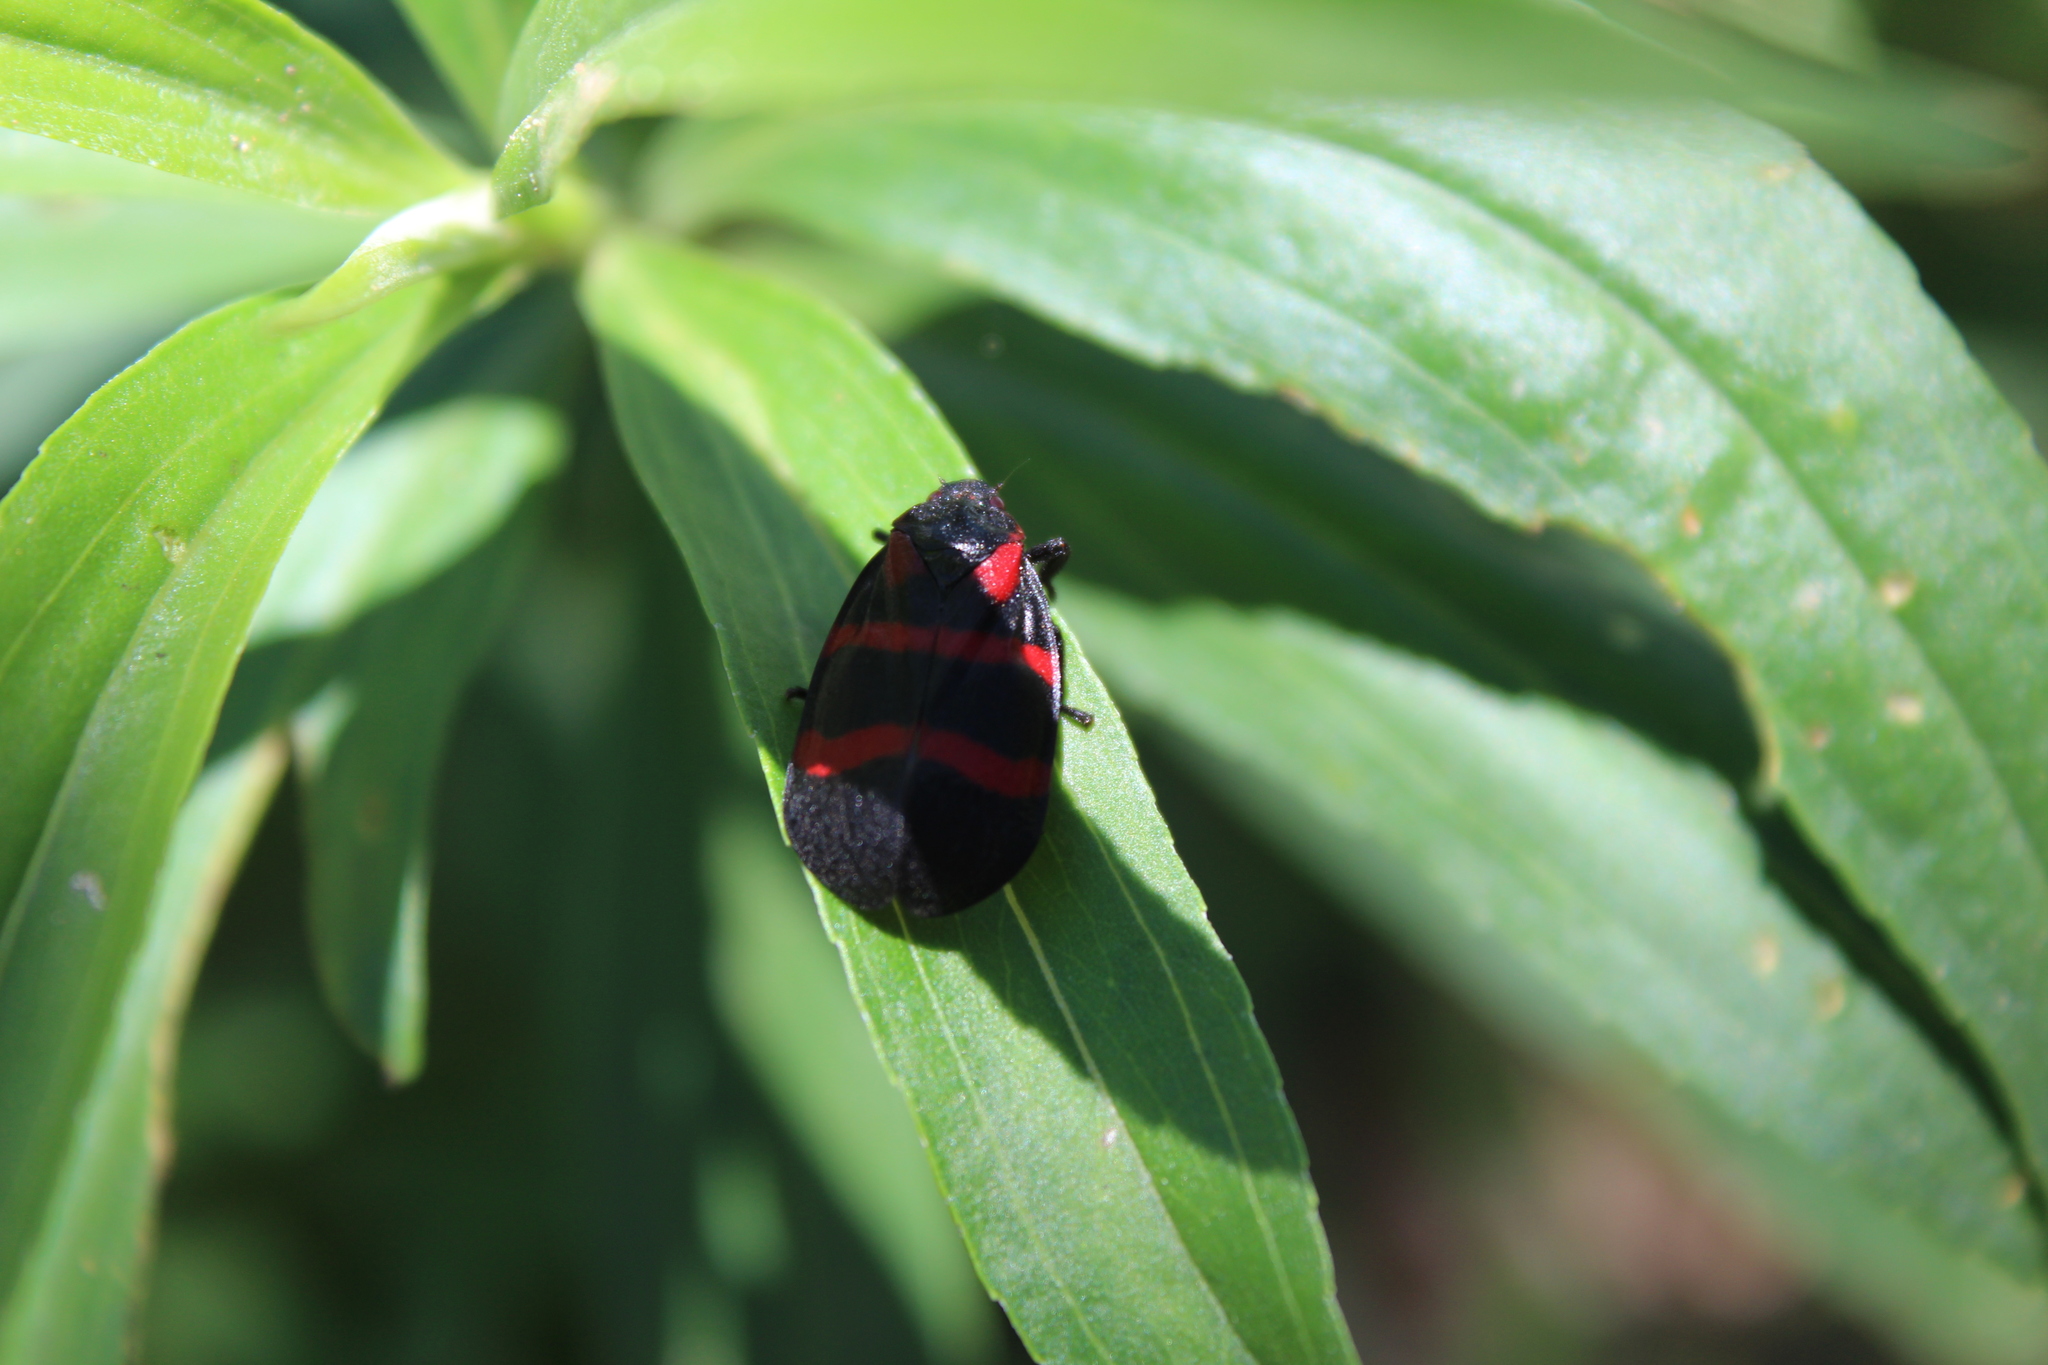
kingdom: Animalia
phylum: Arthropoda
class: Insecta
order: Hemiptera
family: Cercopidae
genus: Huaina
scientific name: Huaina inca
